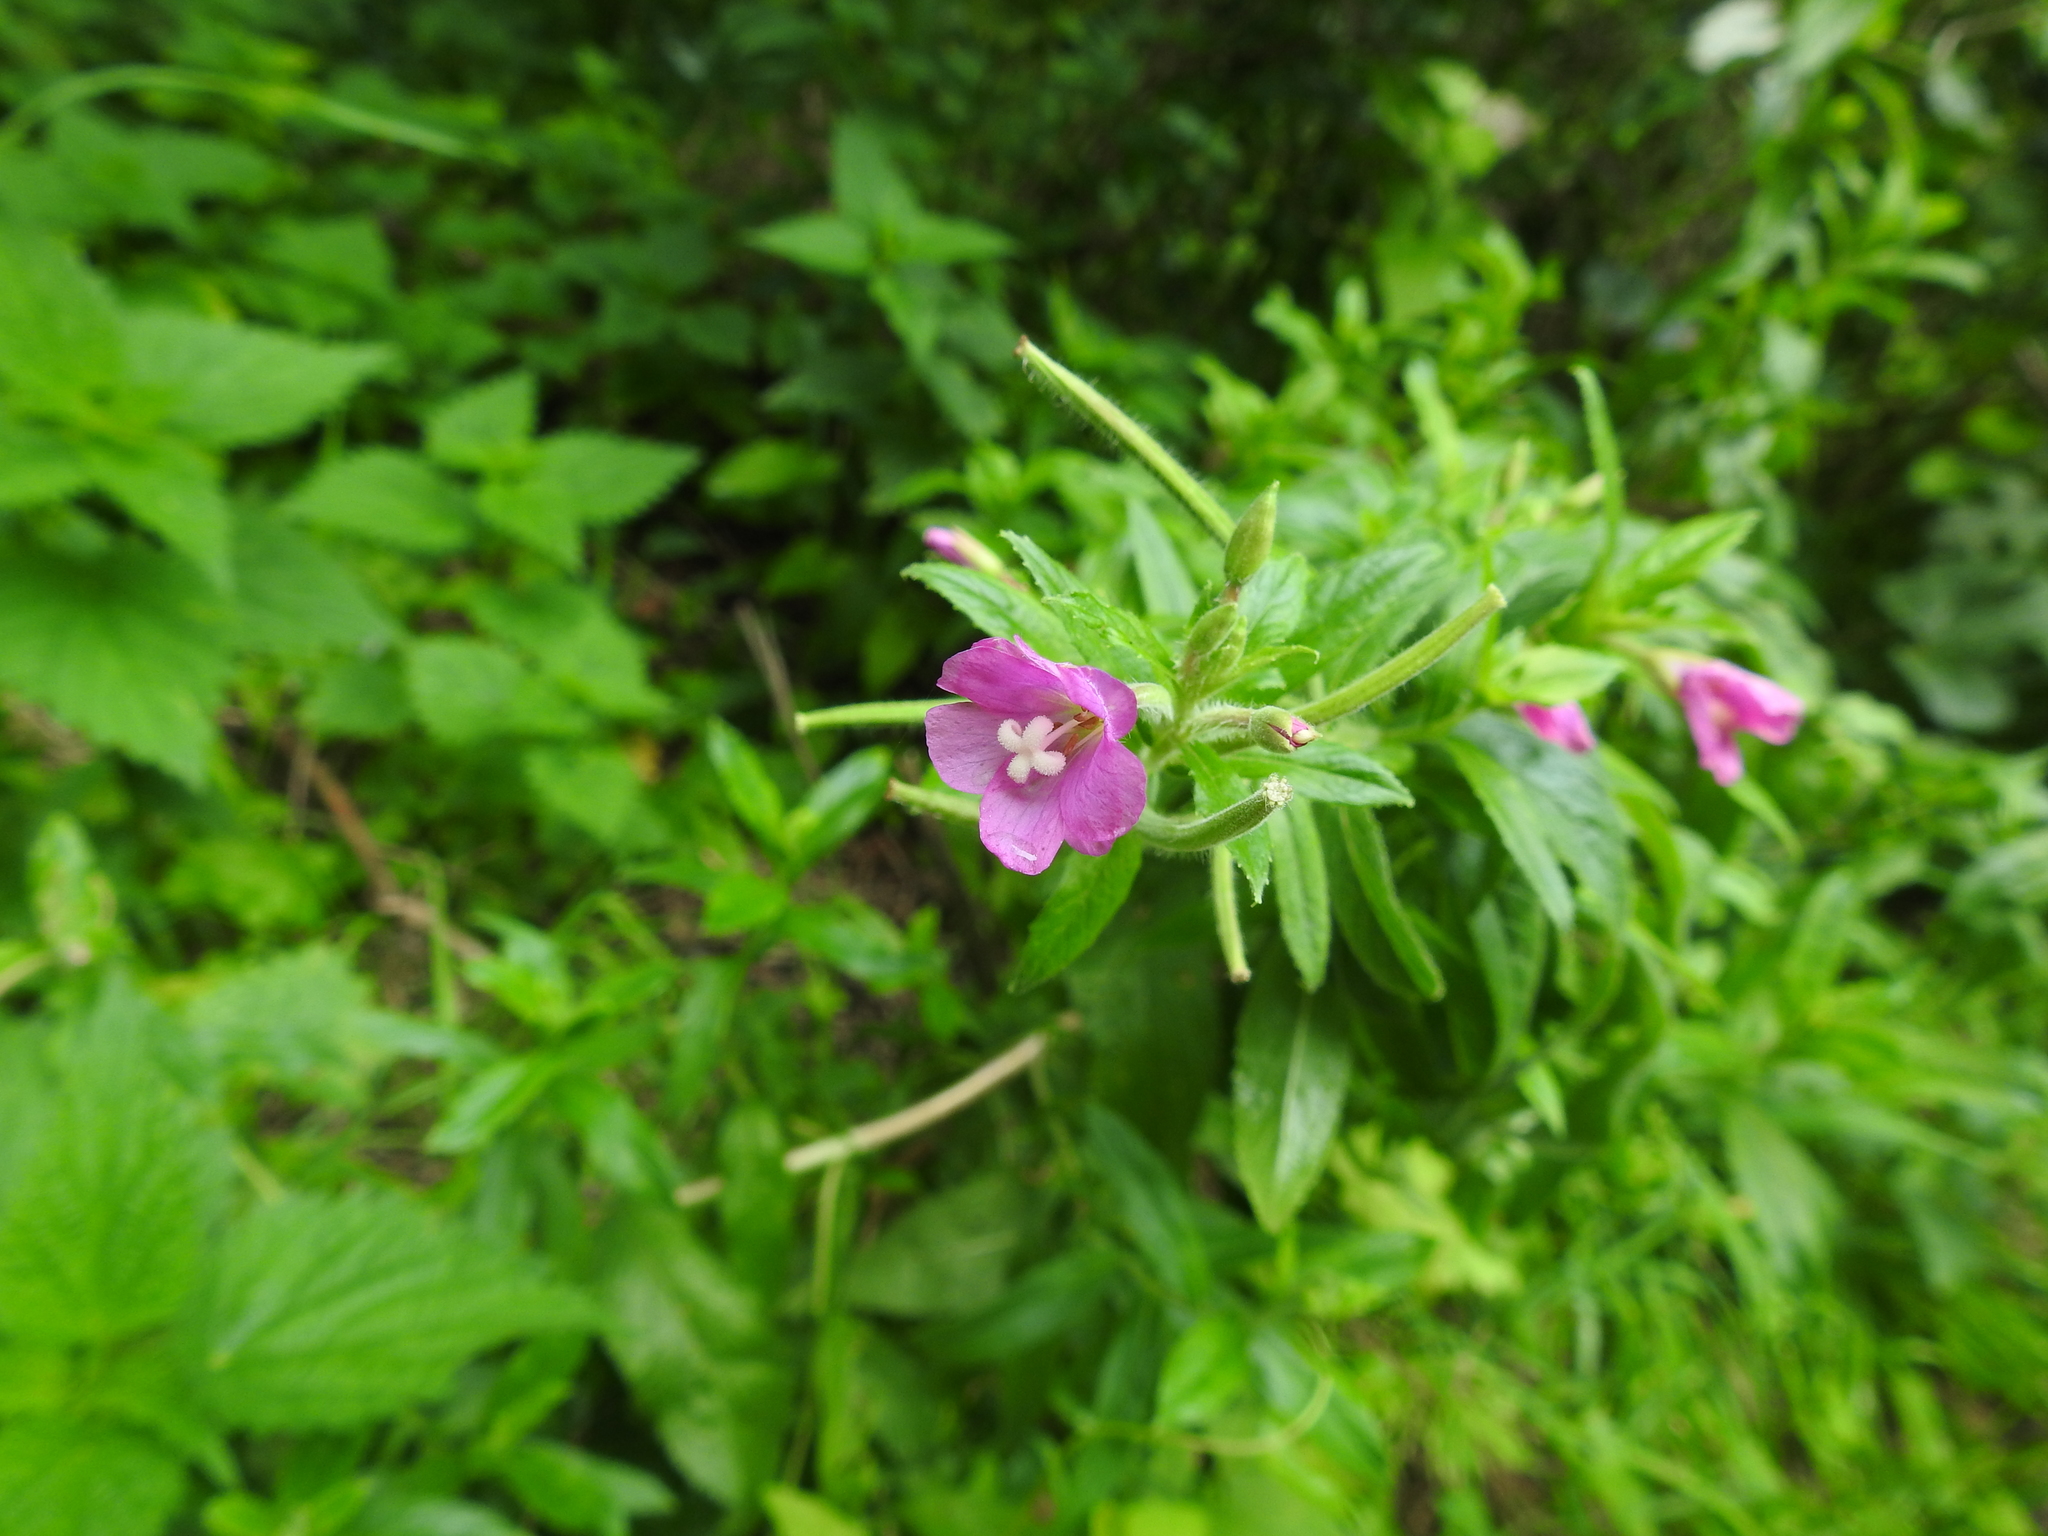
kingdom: Plantae
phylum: Tracheophyta
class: Magnoliopsida
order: Myrtales
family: Onagraceae
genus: Epilobium
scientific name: Epilobium hirsutum
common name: Great willowherb
